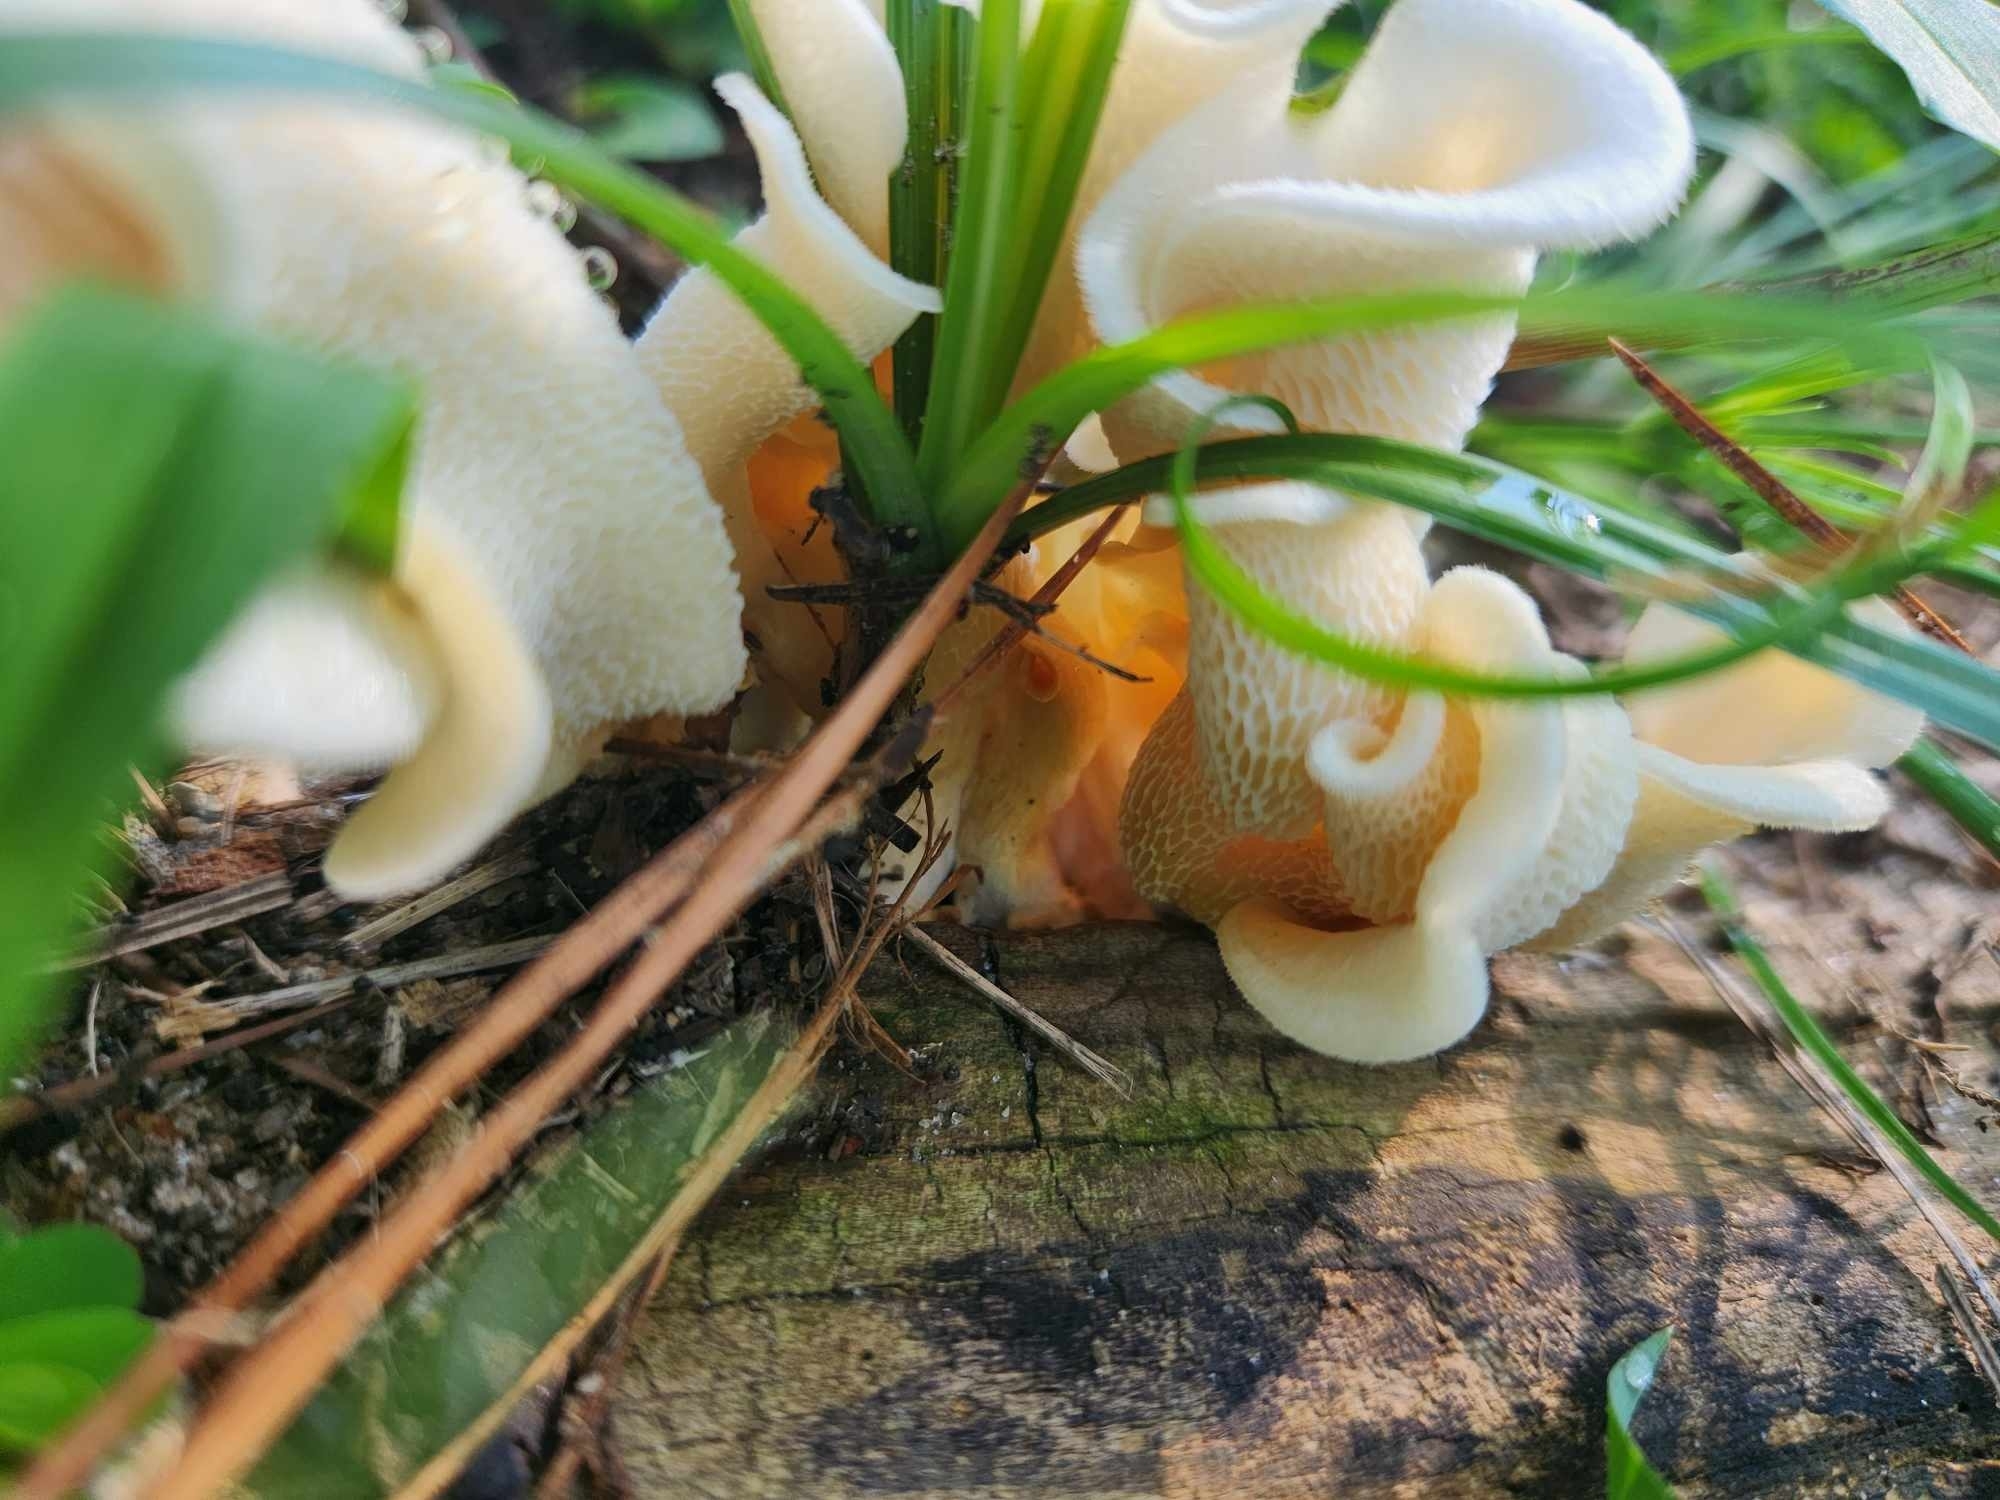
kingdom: Fungi
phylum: Basidiomycota
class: Agaricomycetes
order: Polyporales
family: Polyporaceae
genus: Favolus
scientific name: Favolus tenuiculus
